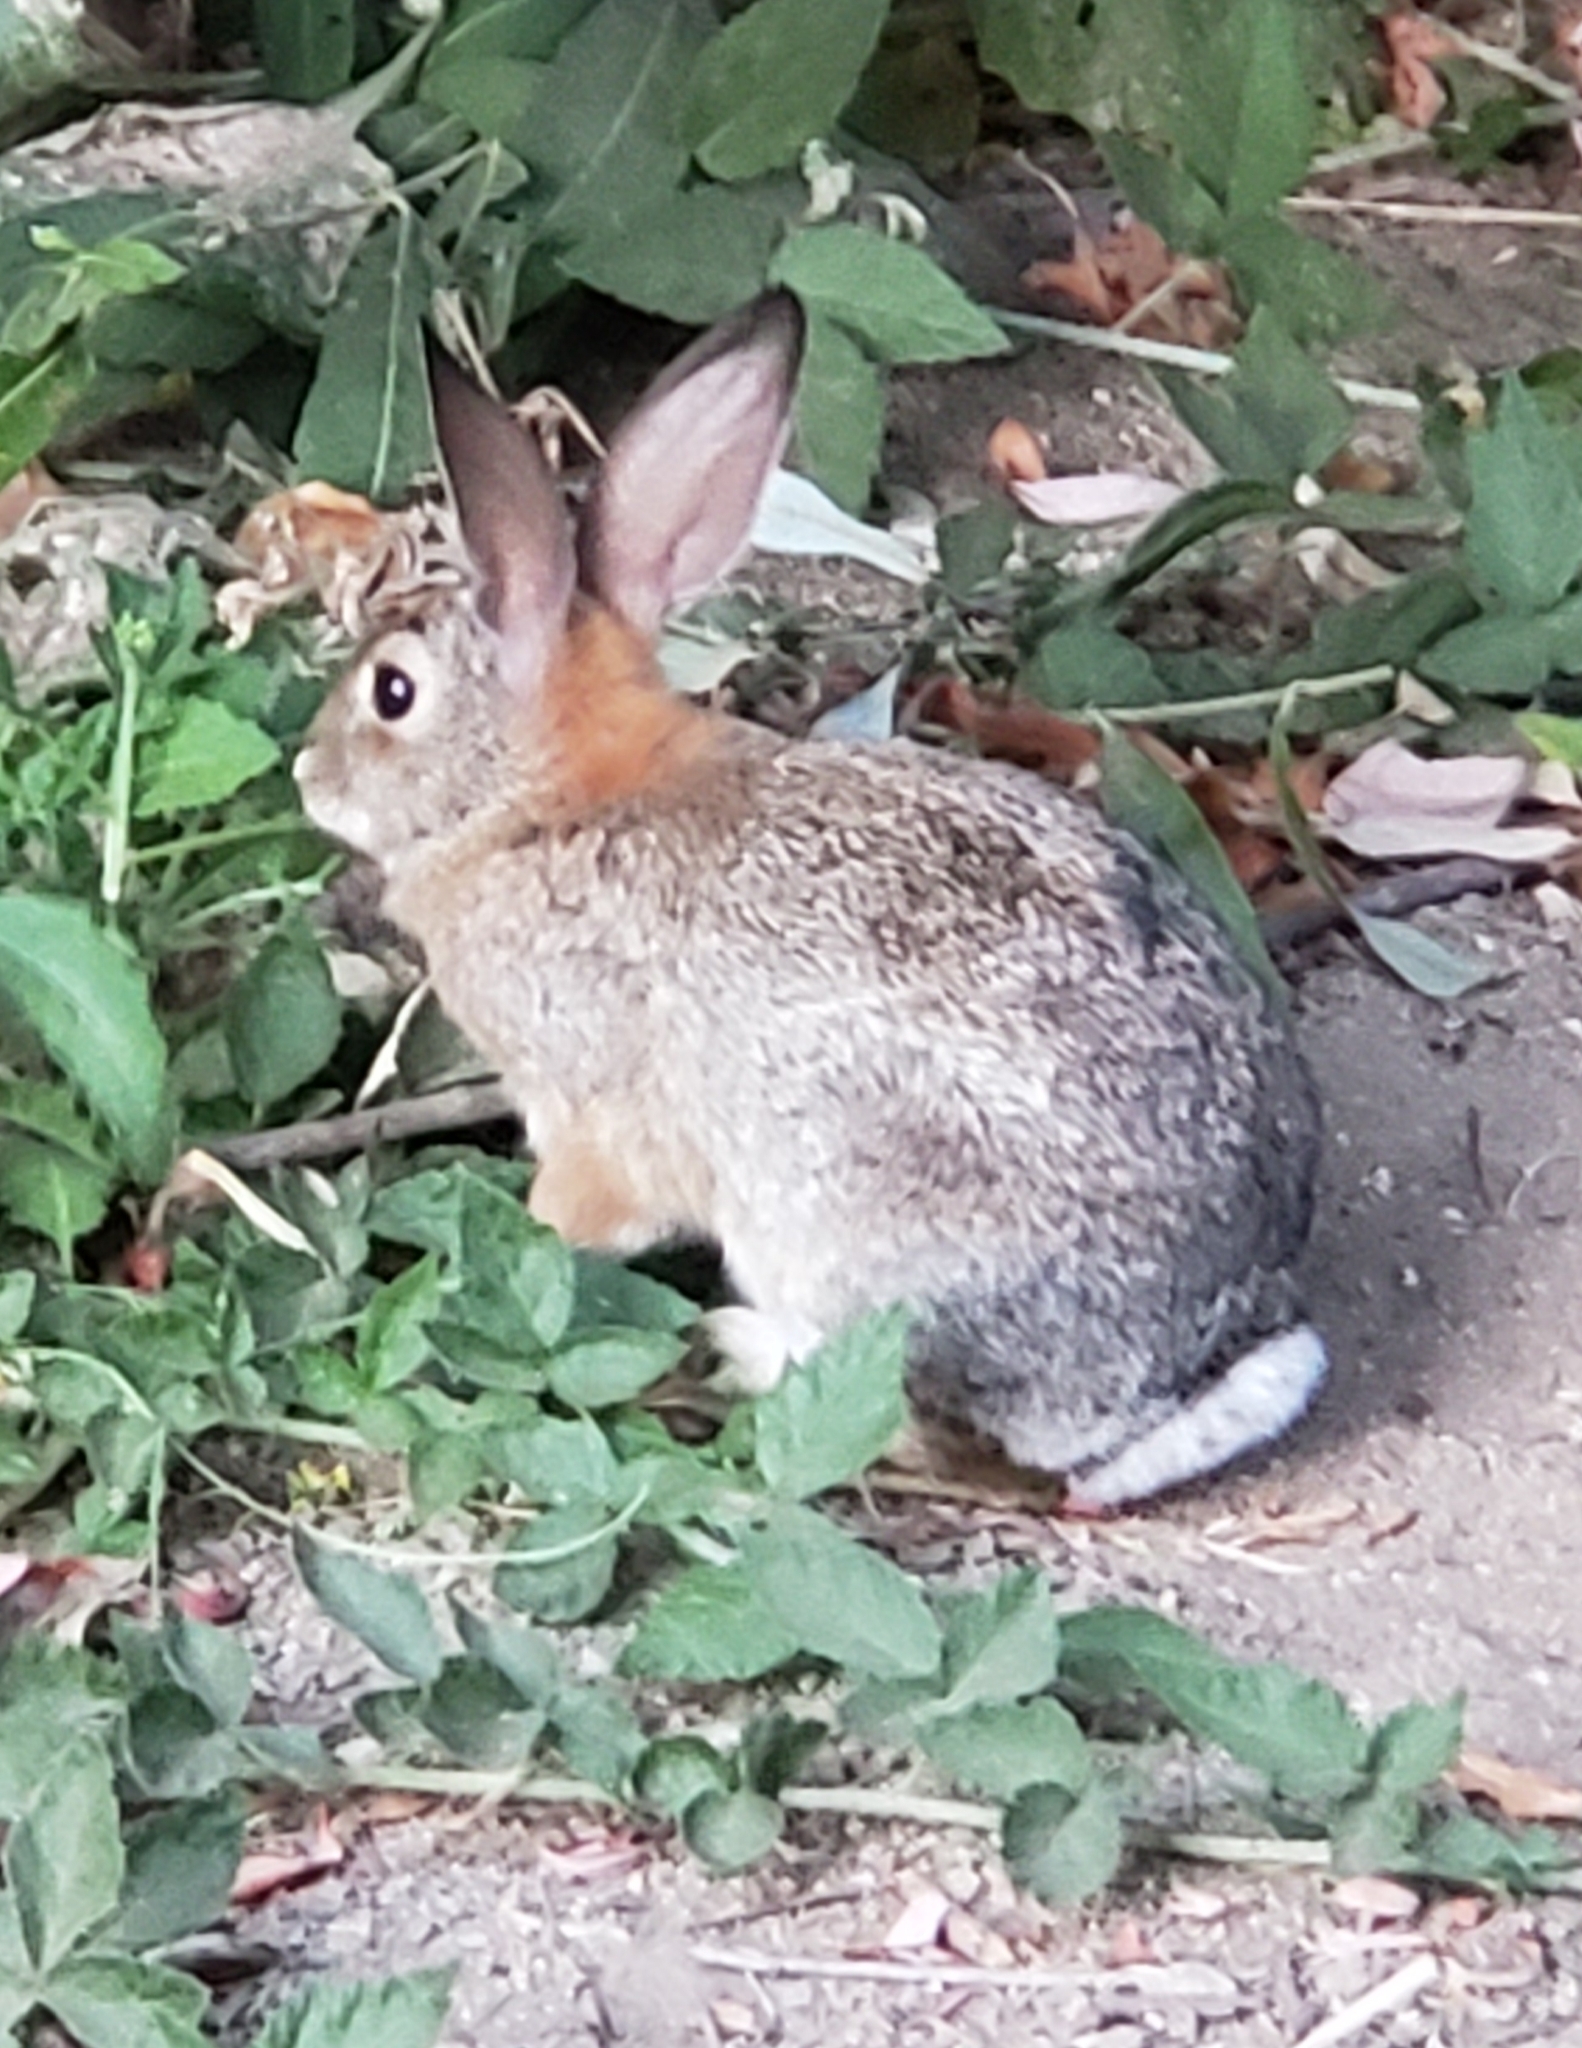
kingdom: Animalia
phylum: Chordata
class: Mammalia
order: Lagomorpha
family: Leporidae
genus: Sylvilagus
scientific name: Sylvilagus audubonii
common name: Desert cottontail
